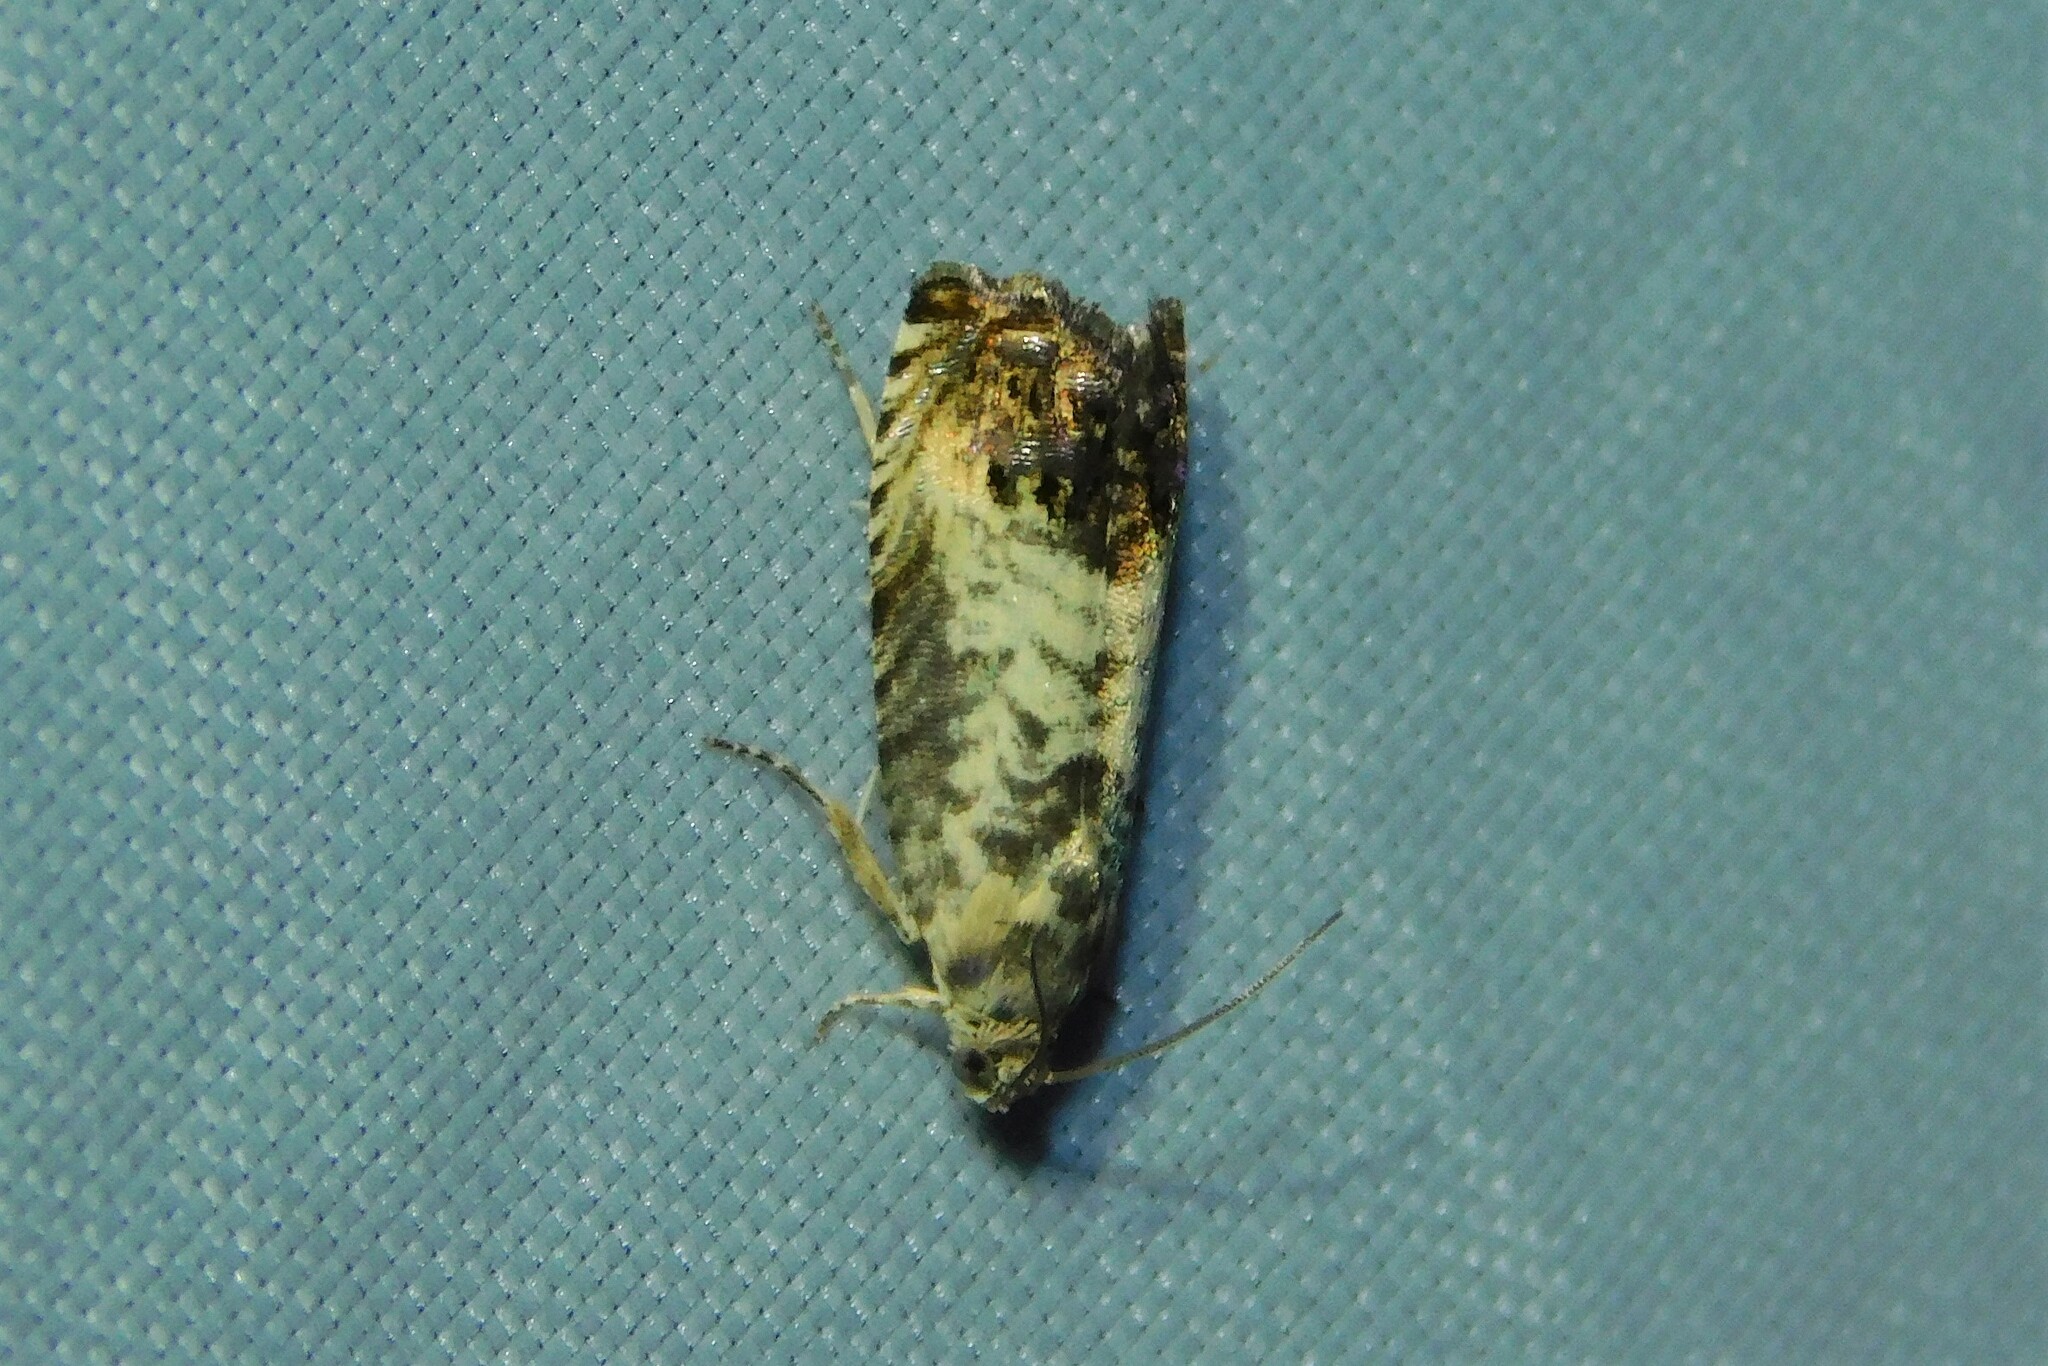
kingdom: Animalia
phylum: Arthropoda
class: Insecta
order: Lepidoptera
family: Tortricidae
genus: Pammene
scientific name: Pammene fasciana
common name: Acorn piercer
